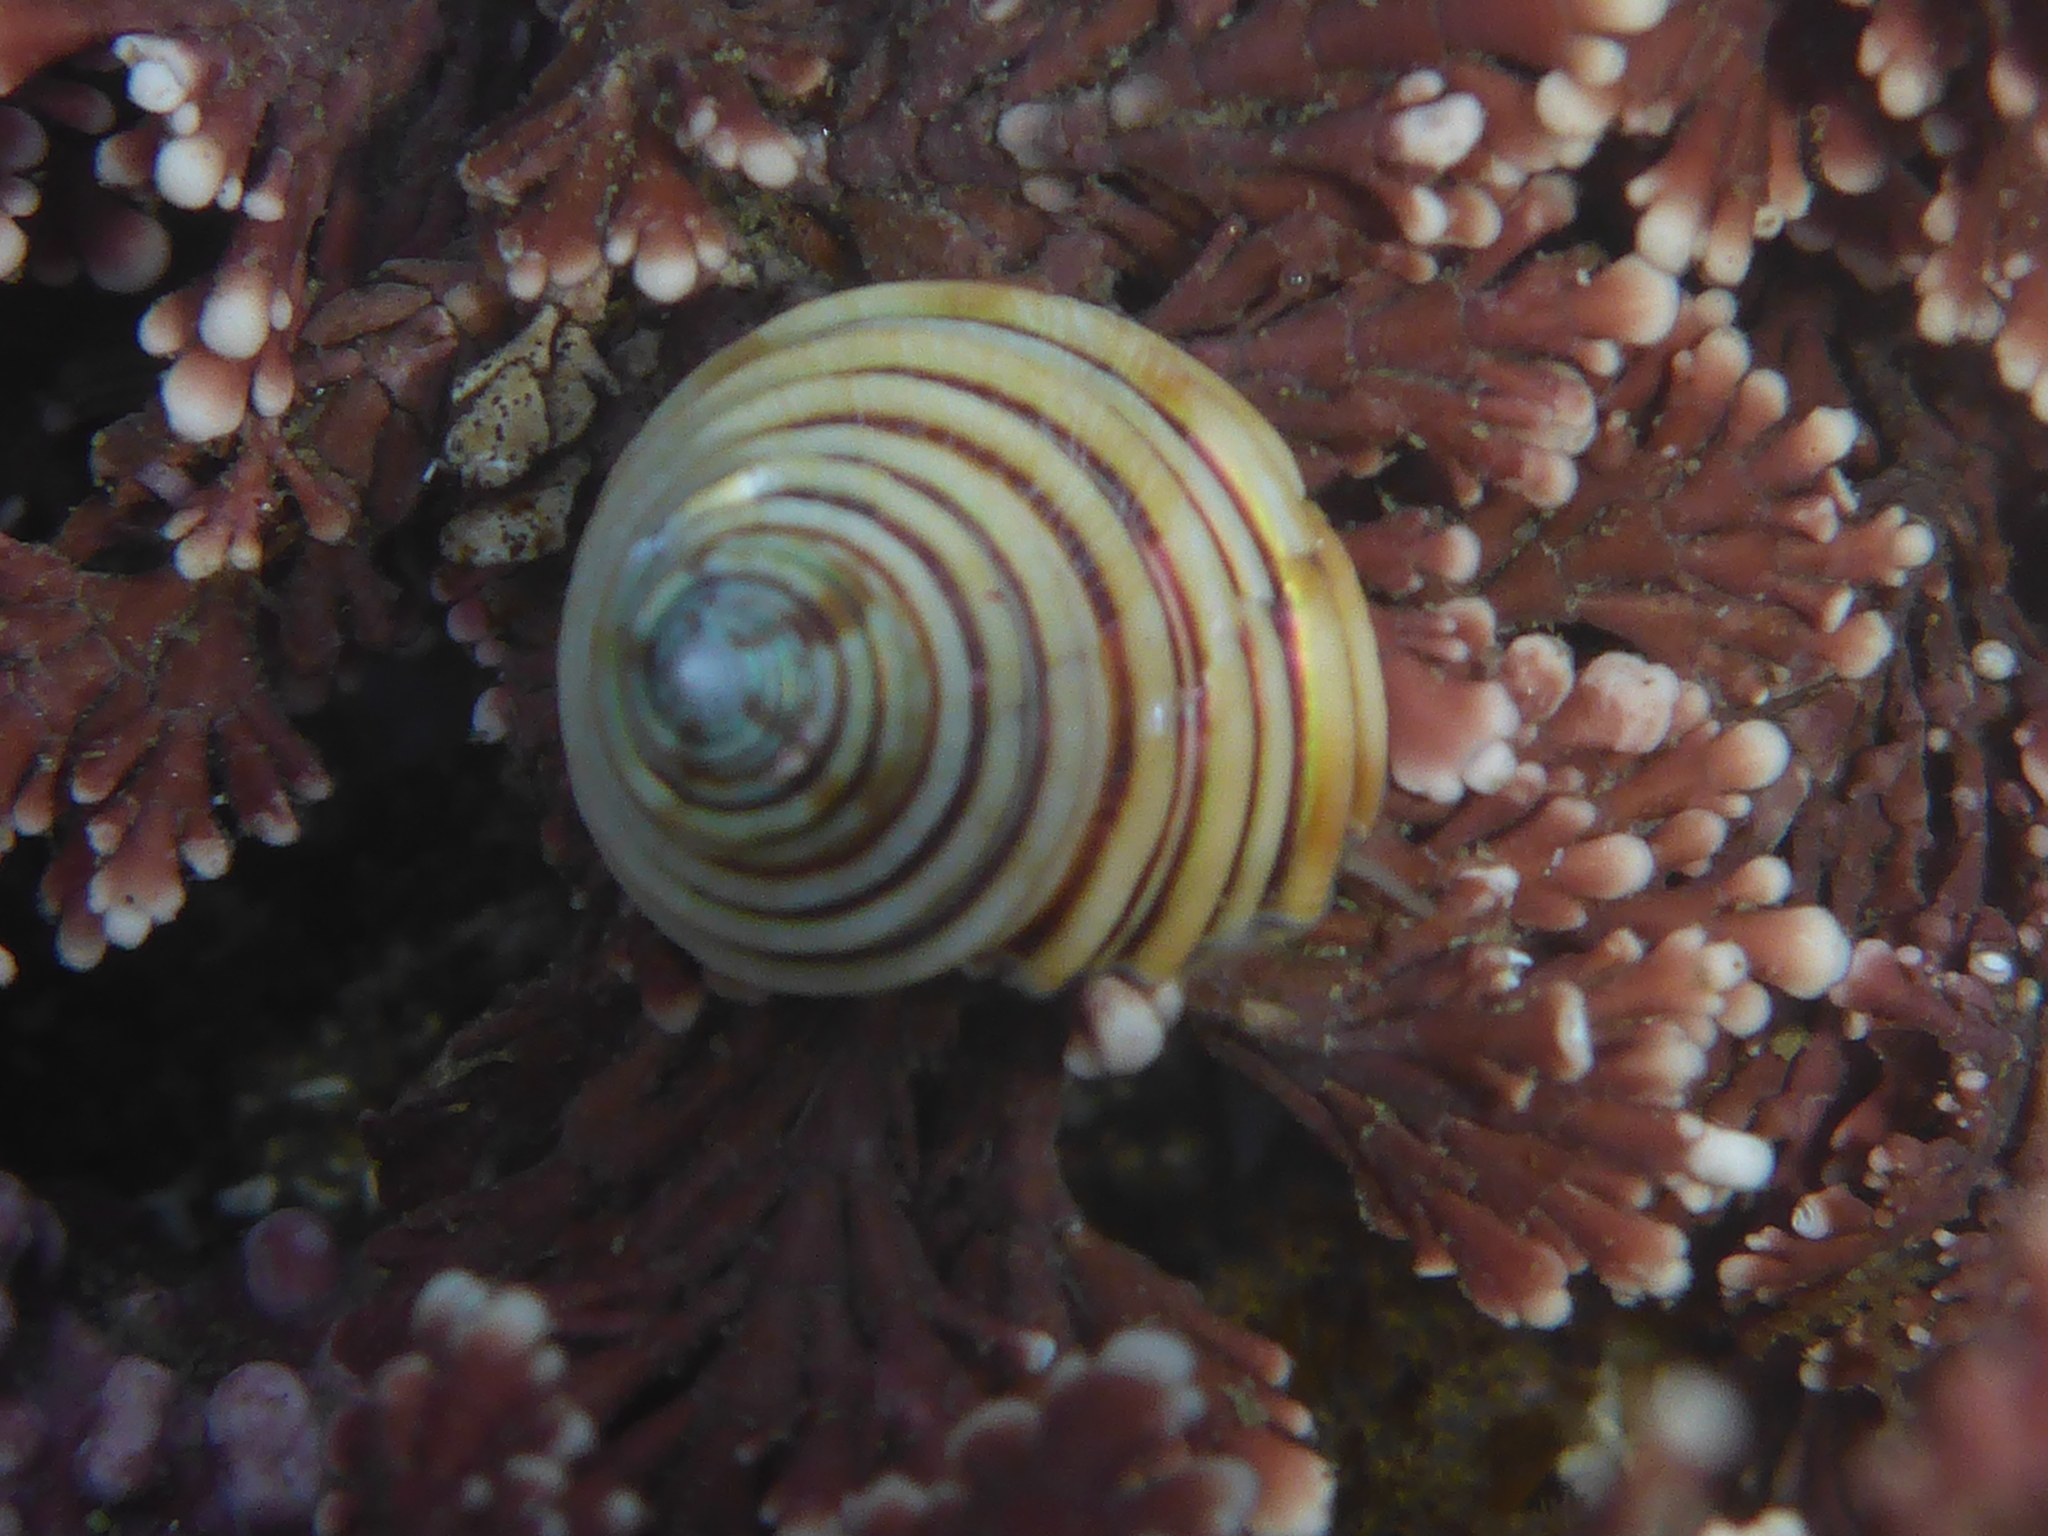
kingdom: Animalia
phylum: Mollusca
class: Gastropoda
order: Trochida
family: Calliostomatidae
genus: Calliostoma
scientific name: Calliostoma canaliculatum
